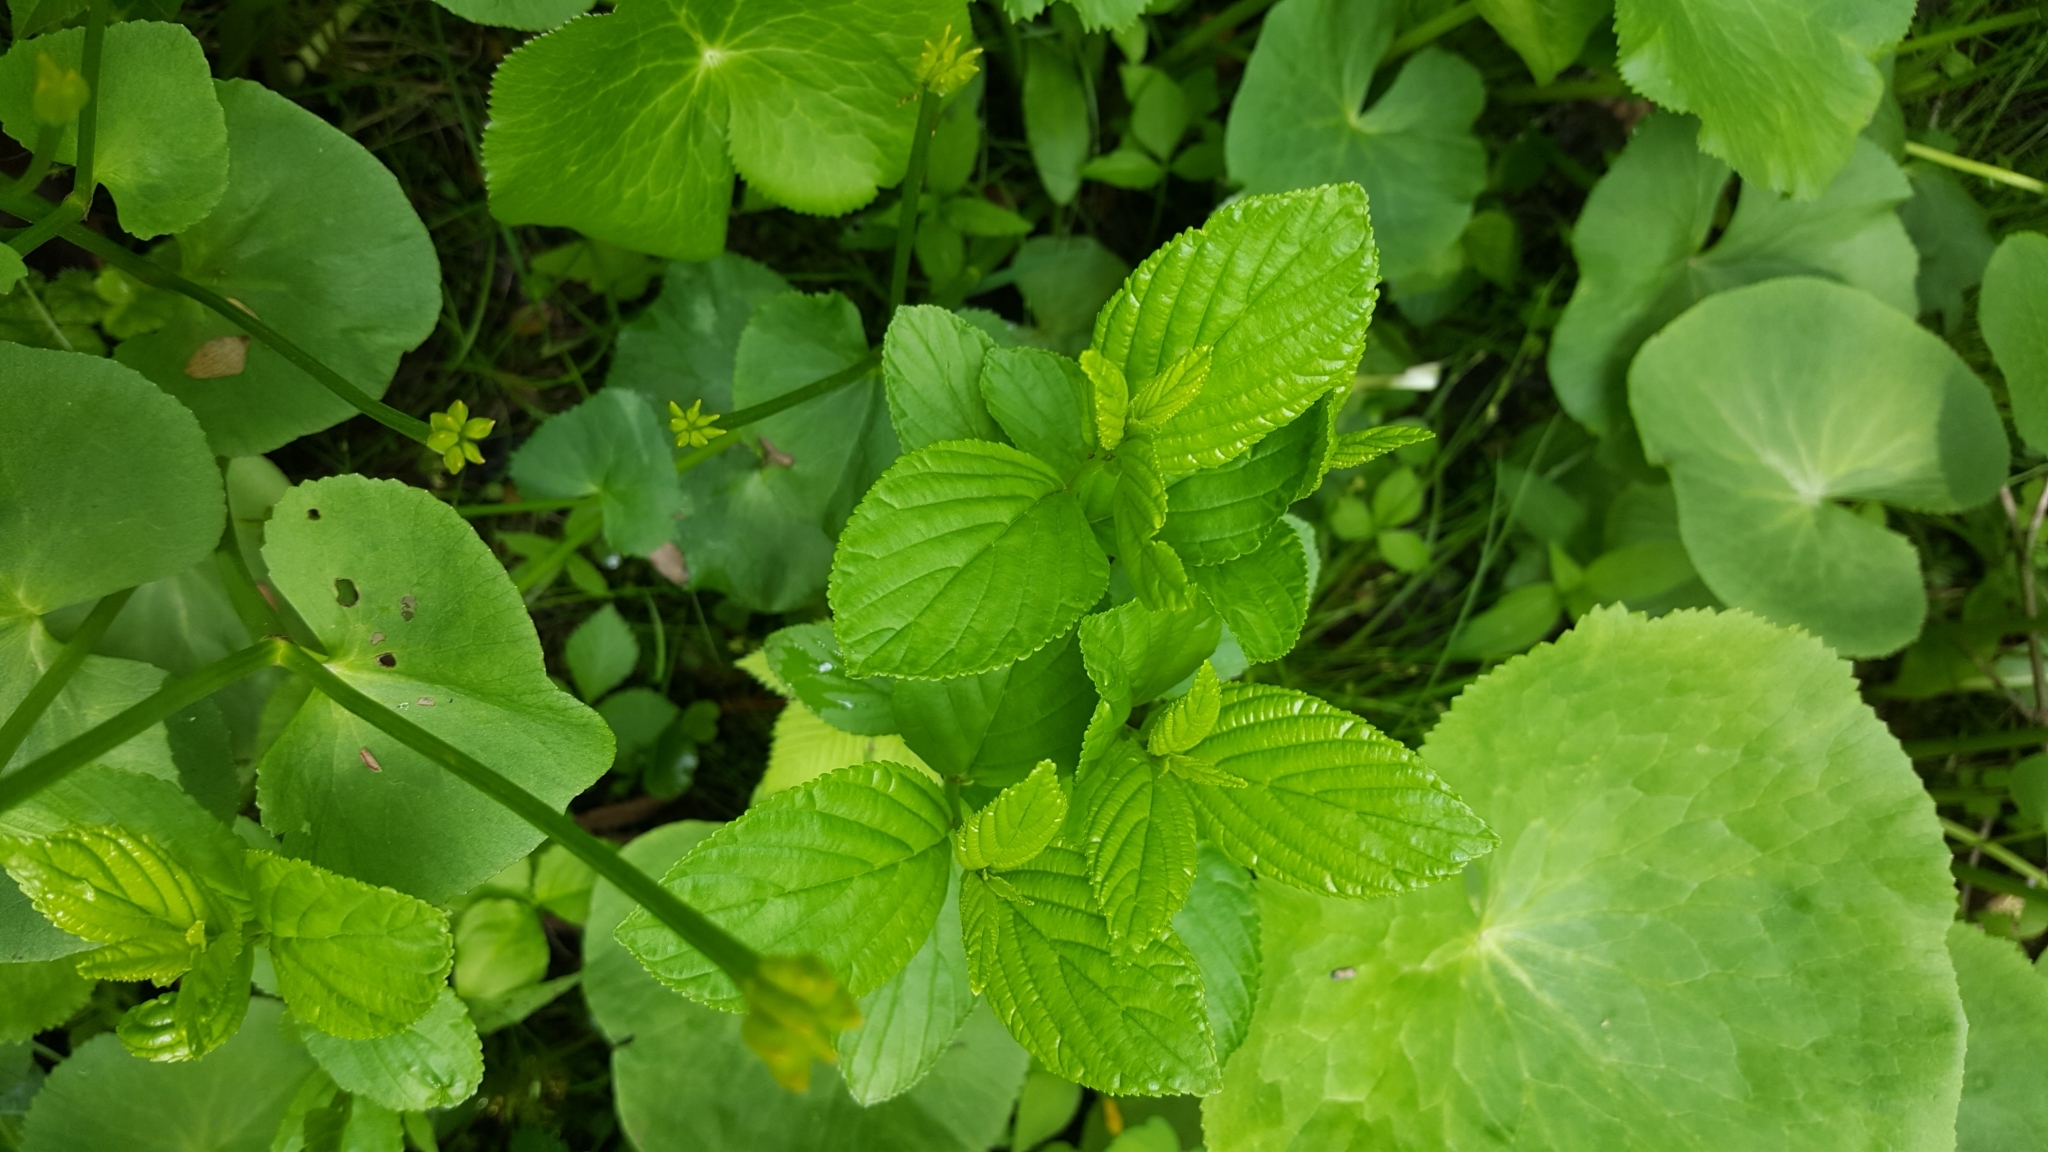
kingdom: Plantae
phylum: Tracheophyta
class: Magnoliopsida
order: Rosales
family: Rhamnaceae
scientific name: Rhamnaceae
